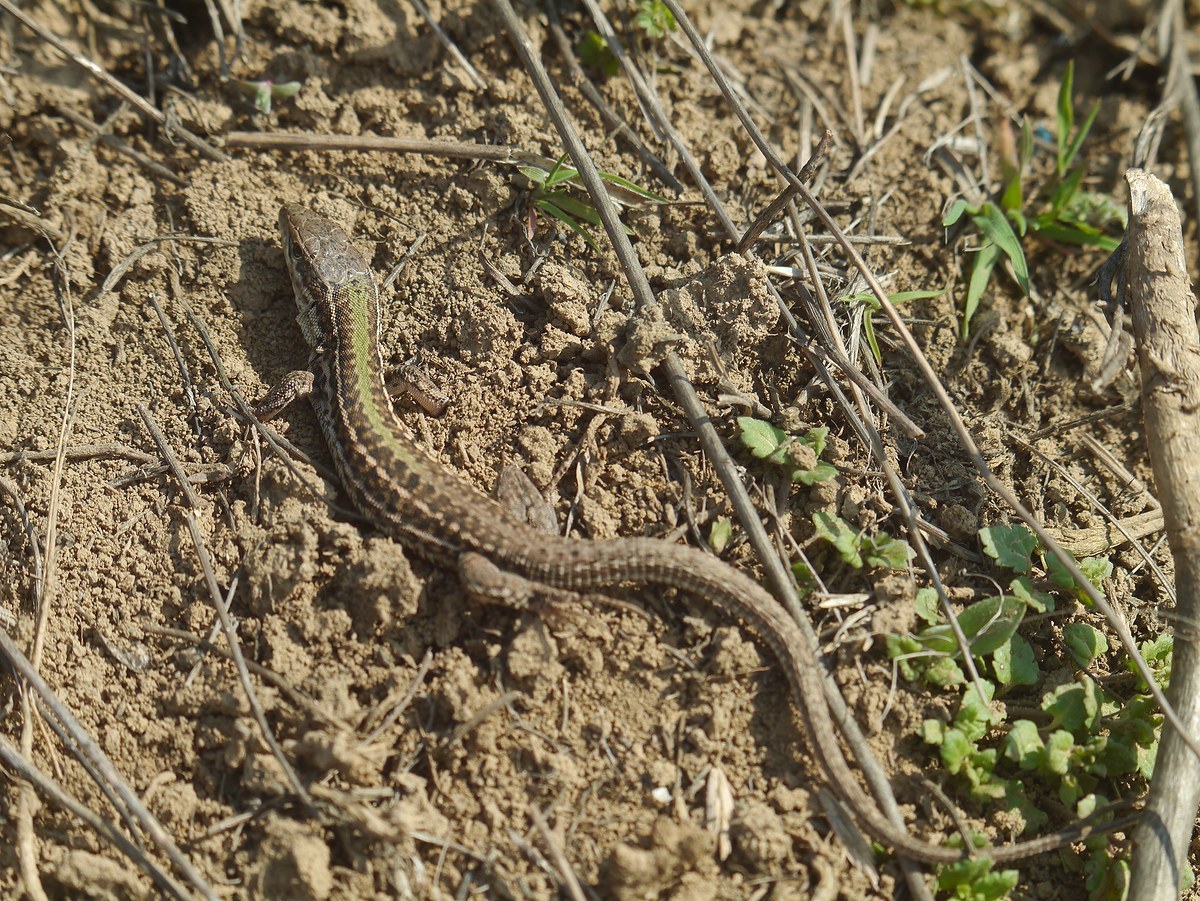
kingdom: Animalia
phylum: Chordata
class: Squamata
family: Lacertidae
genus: Podarcis
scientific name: Podarcis tauricus
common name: Balkan wall lizard
